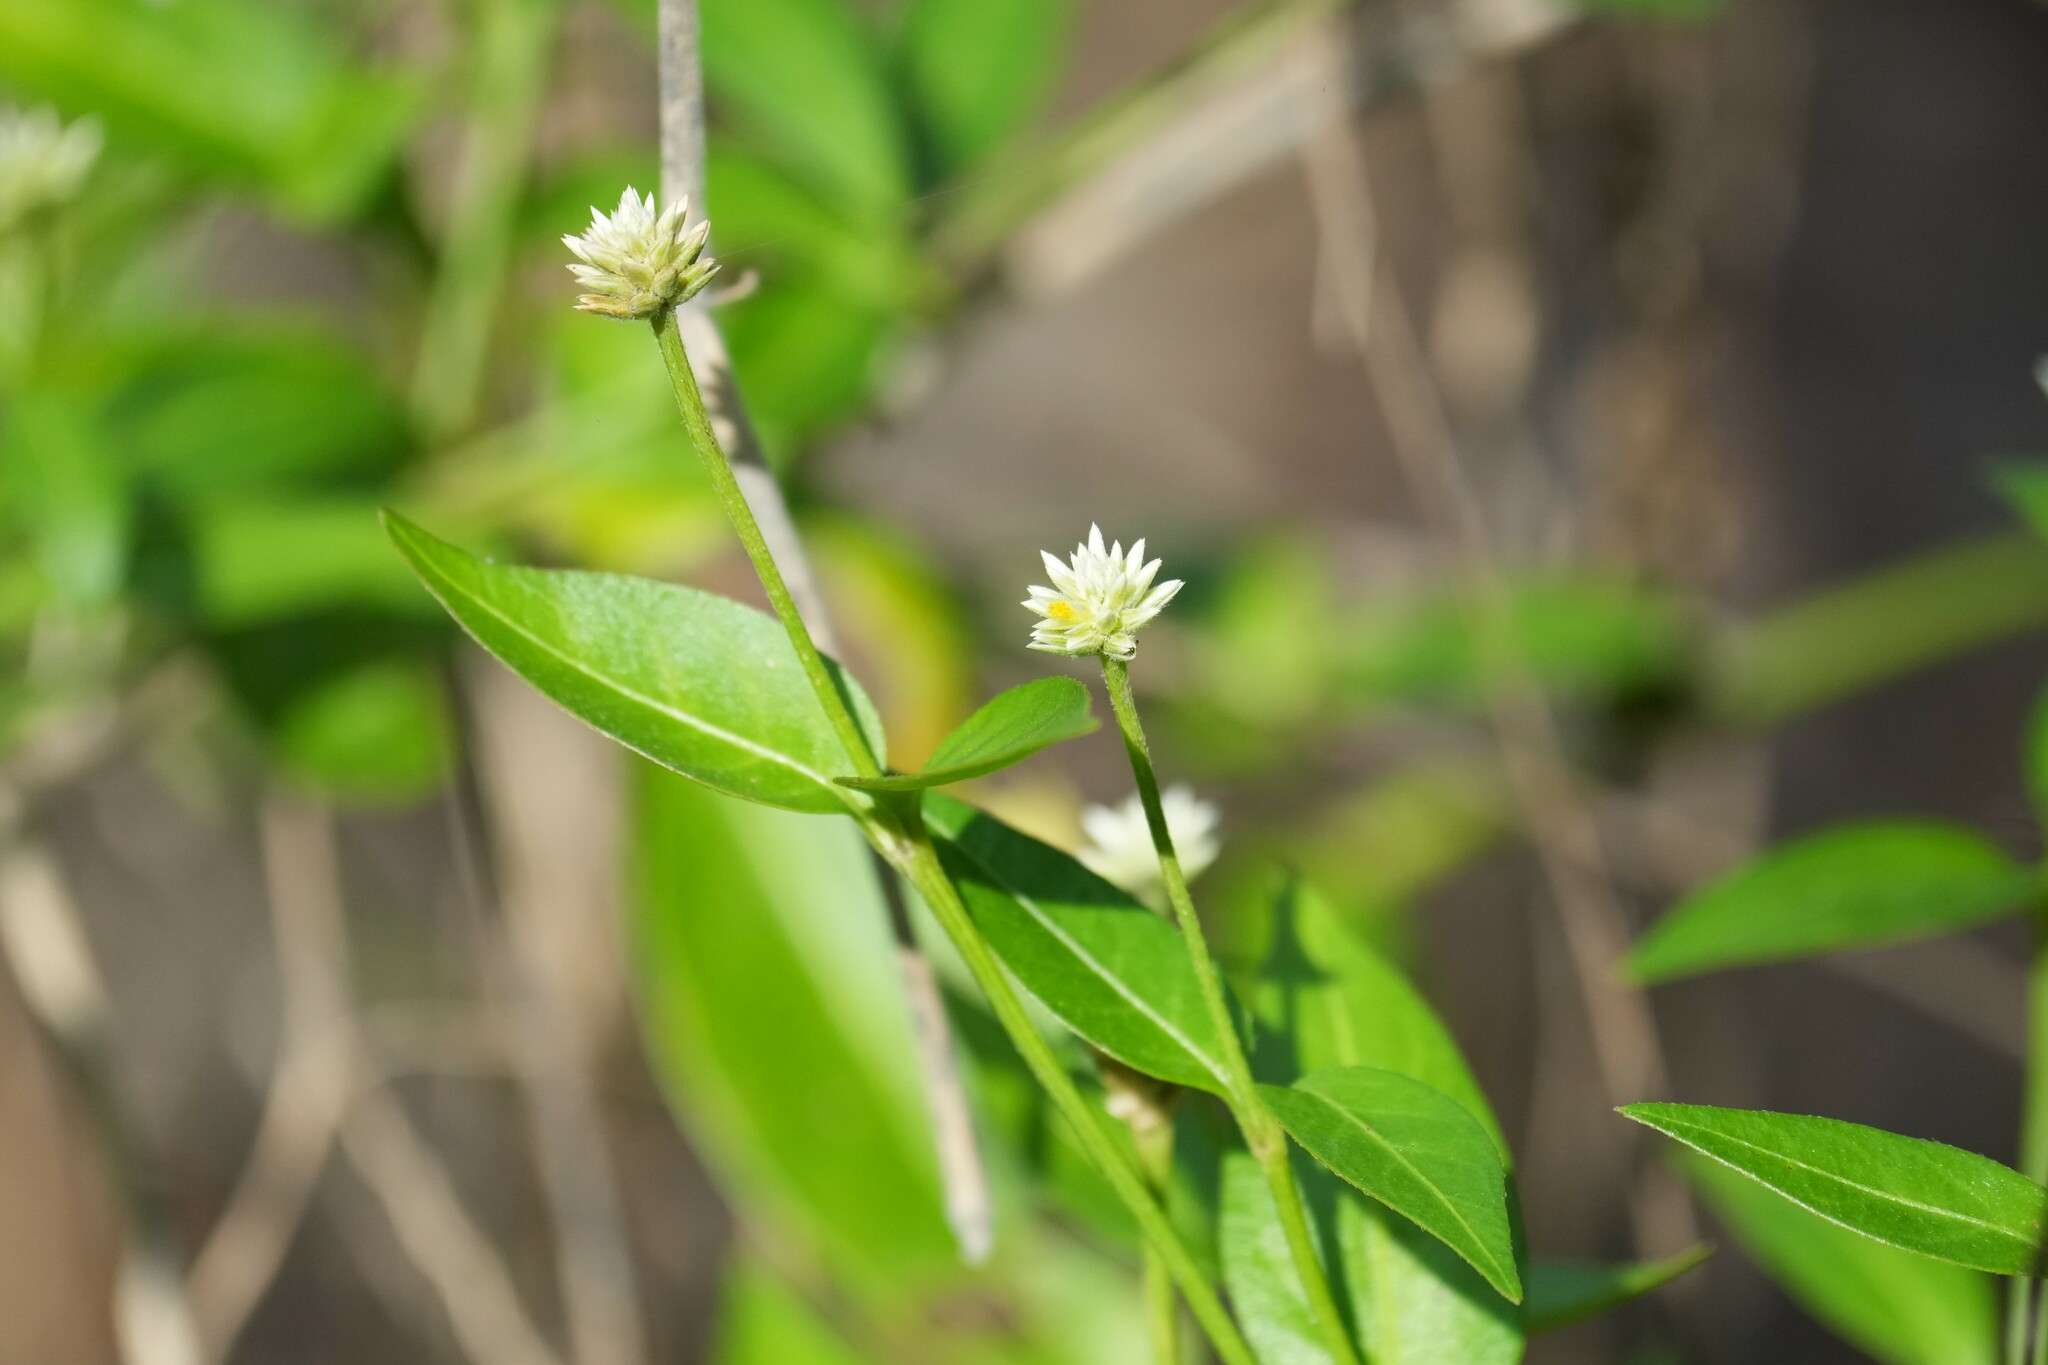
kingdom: Plantae
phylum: Tracheophyta
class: Magnoliopsida
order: Caryophyllales
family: Amaranthaceae
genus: Alternanthera
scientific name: Alternanthera flavescens
